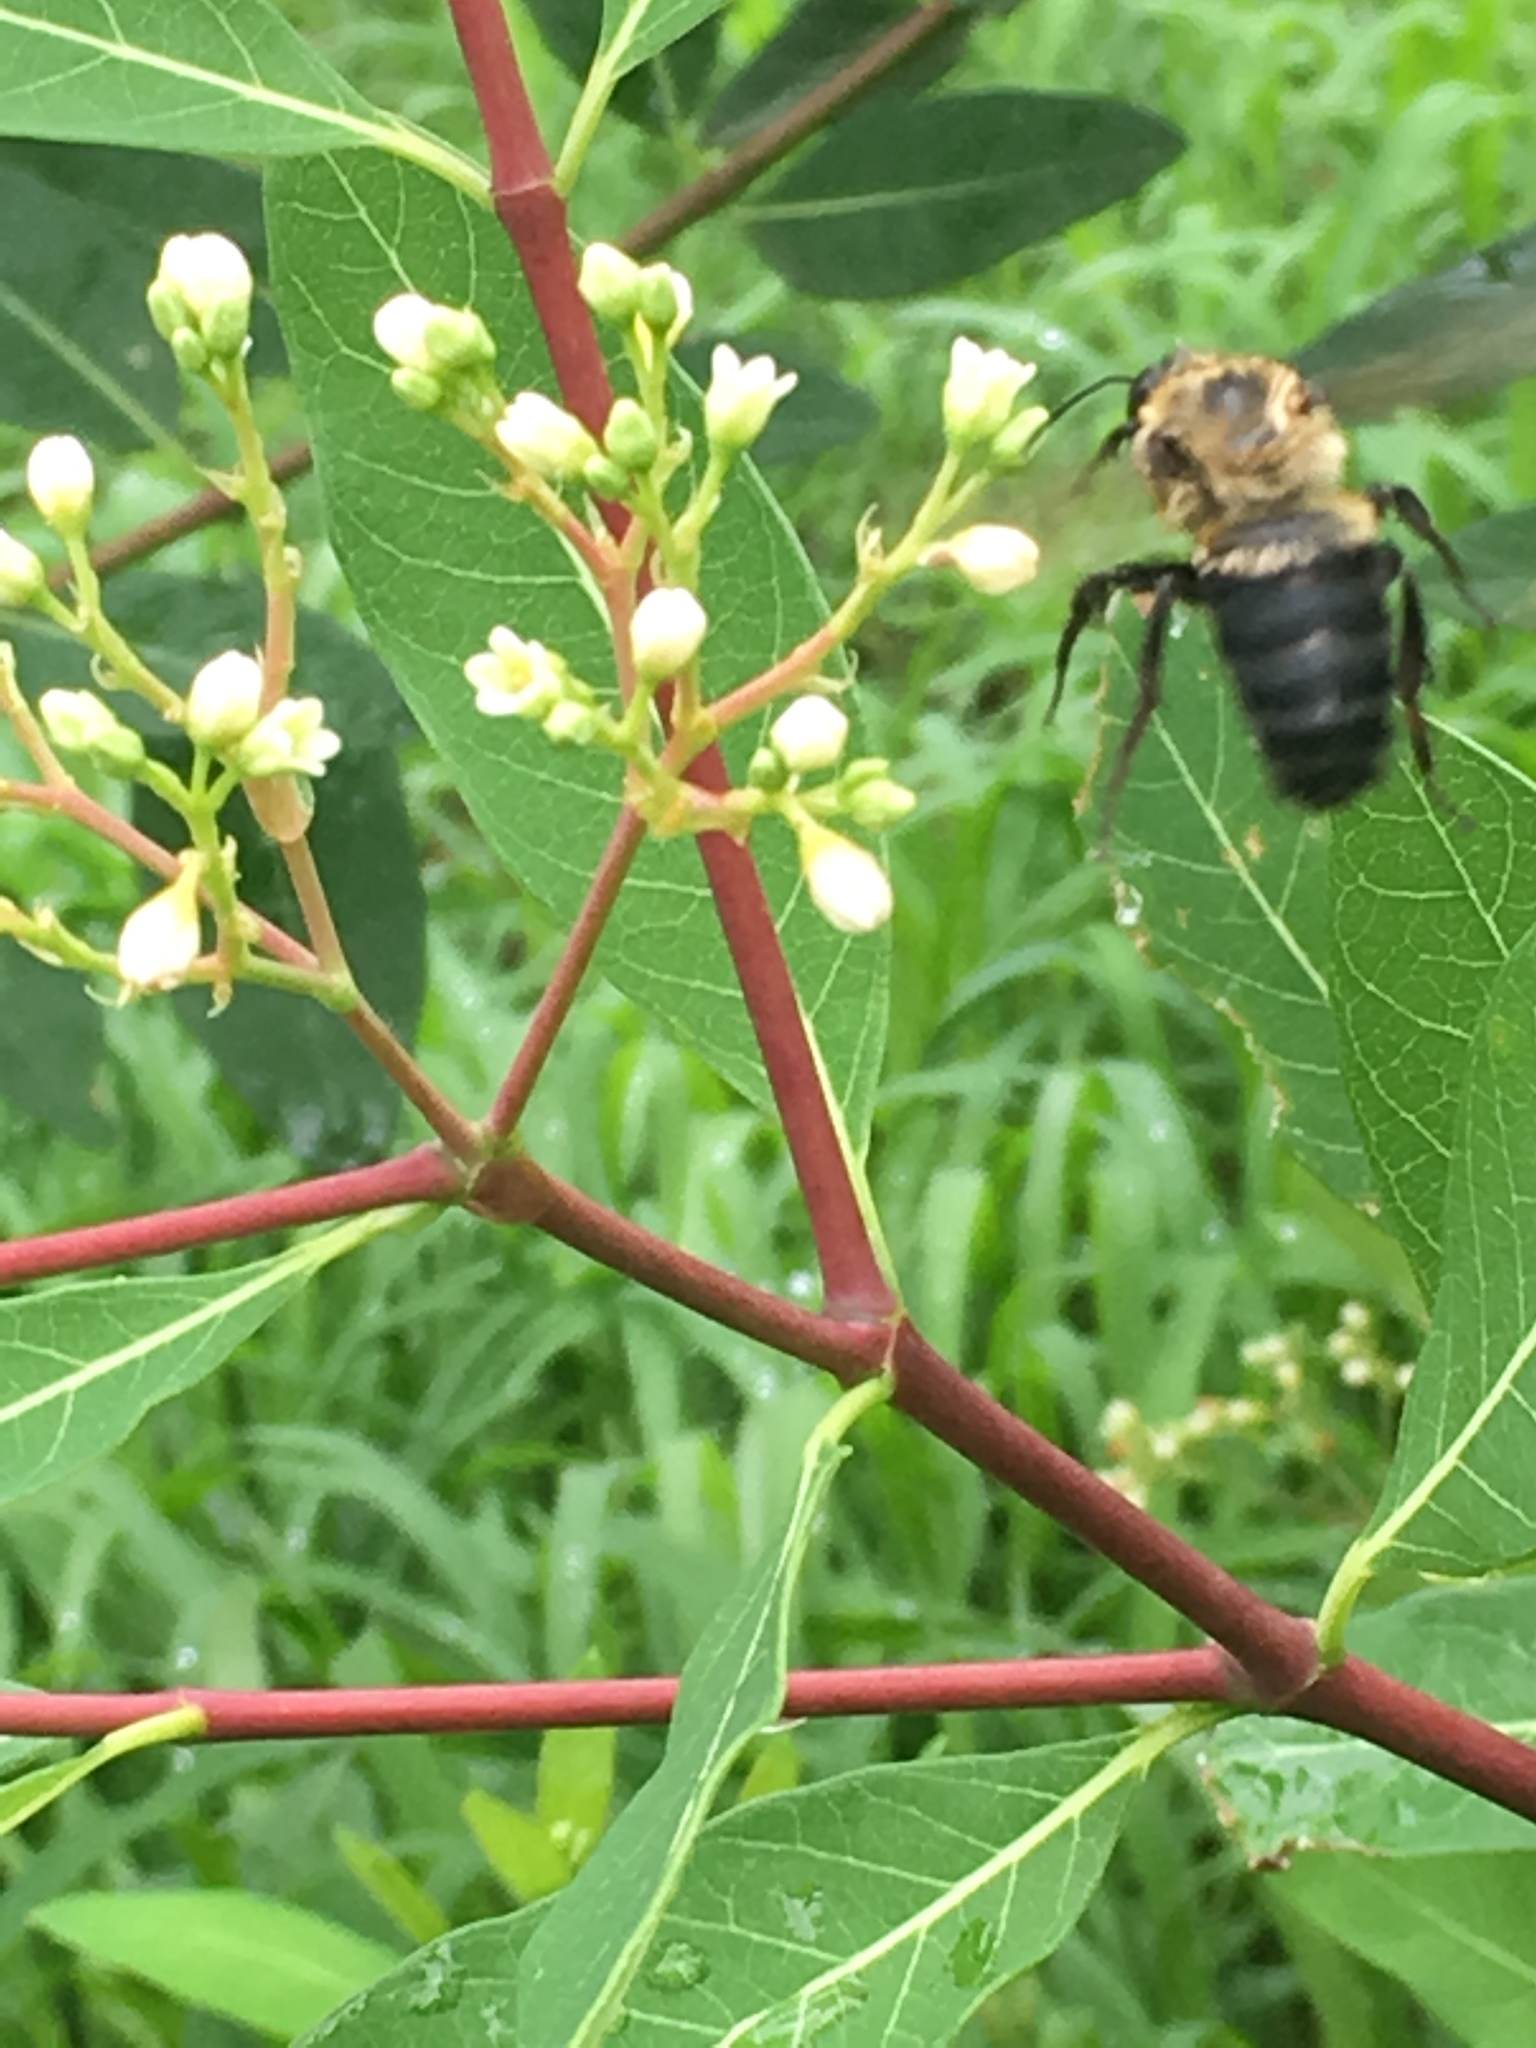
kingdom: Animalia
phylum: Arthropoda
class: Insecta
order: Hymenoptera
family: Apidae
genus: Bombus
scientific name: Bombus griseocollis
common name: Brown-belted bumble bee
